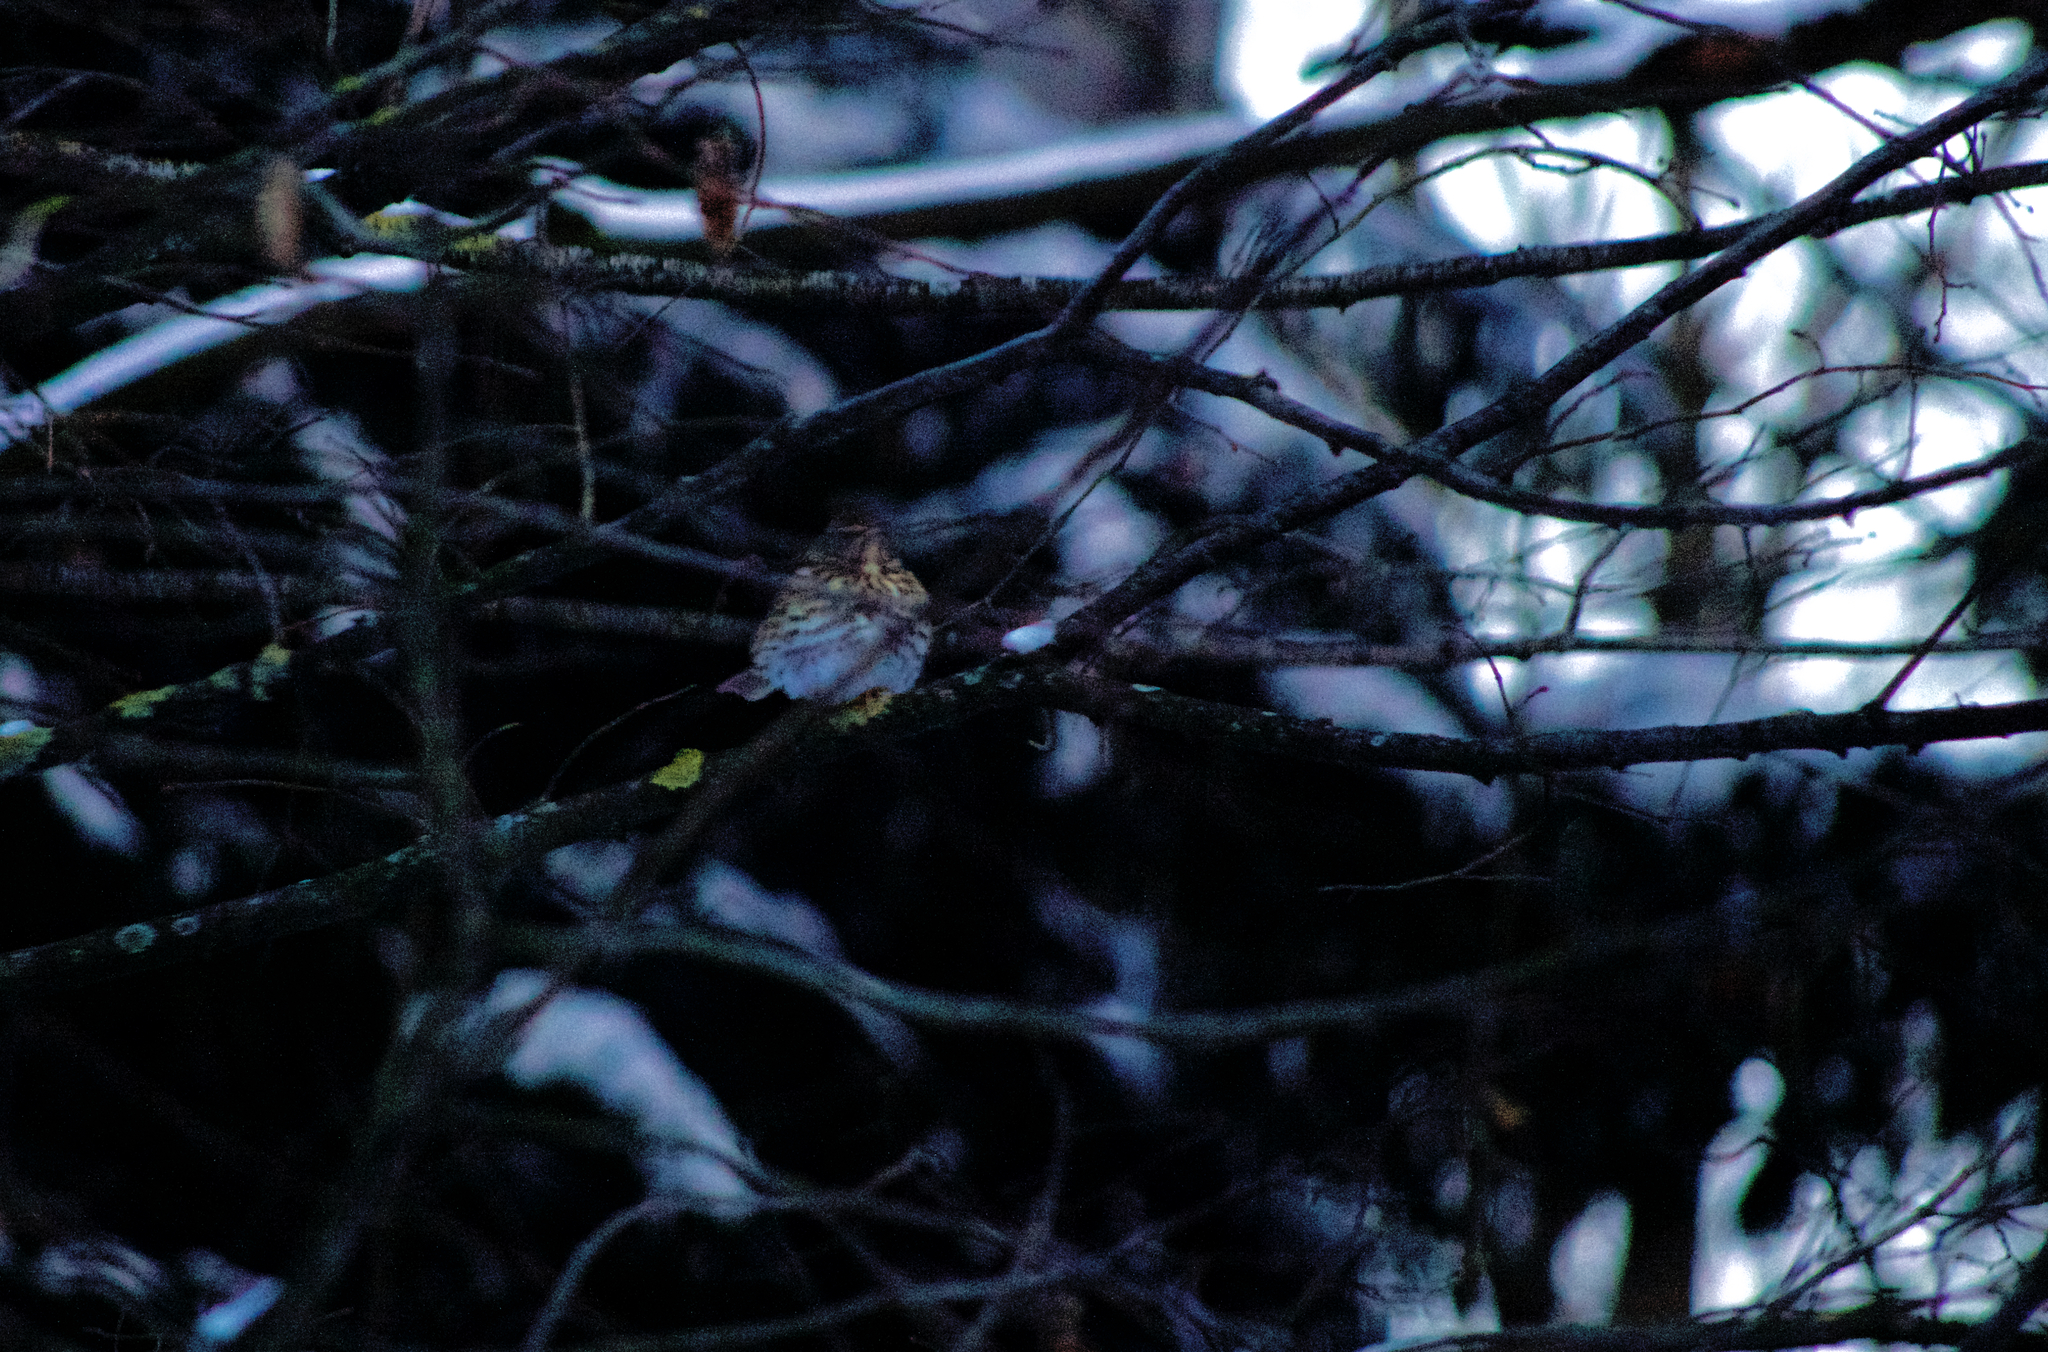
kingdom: Animalia
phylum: Chordata
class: Aves
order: Passeriformes
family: Turdidae
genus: Turdus
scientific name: Turdus philomelos
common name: Song thrush
